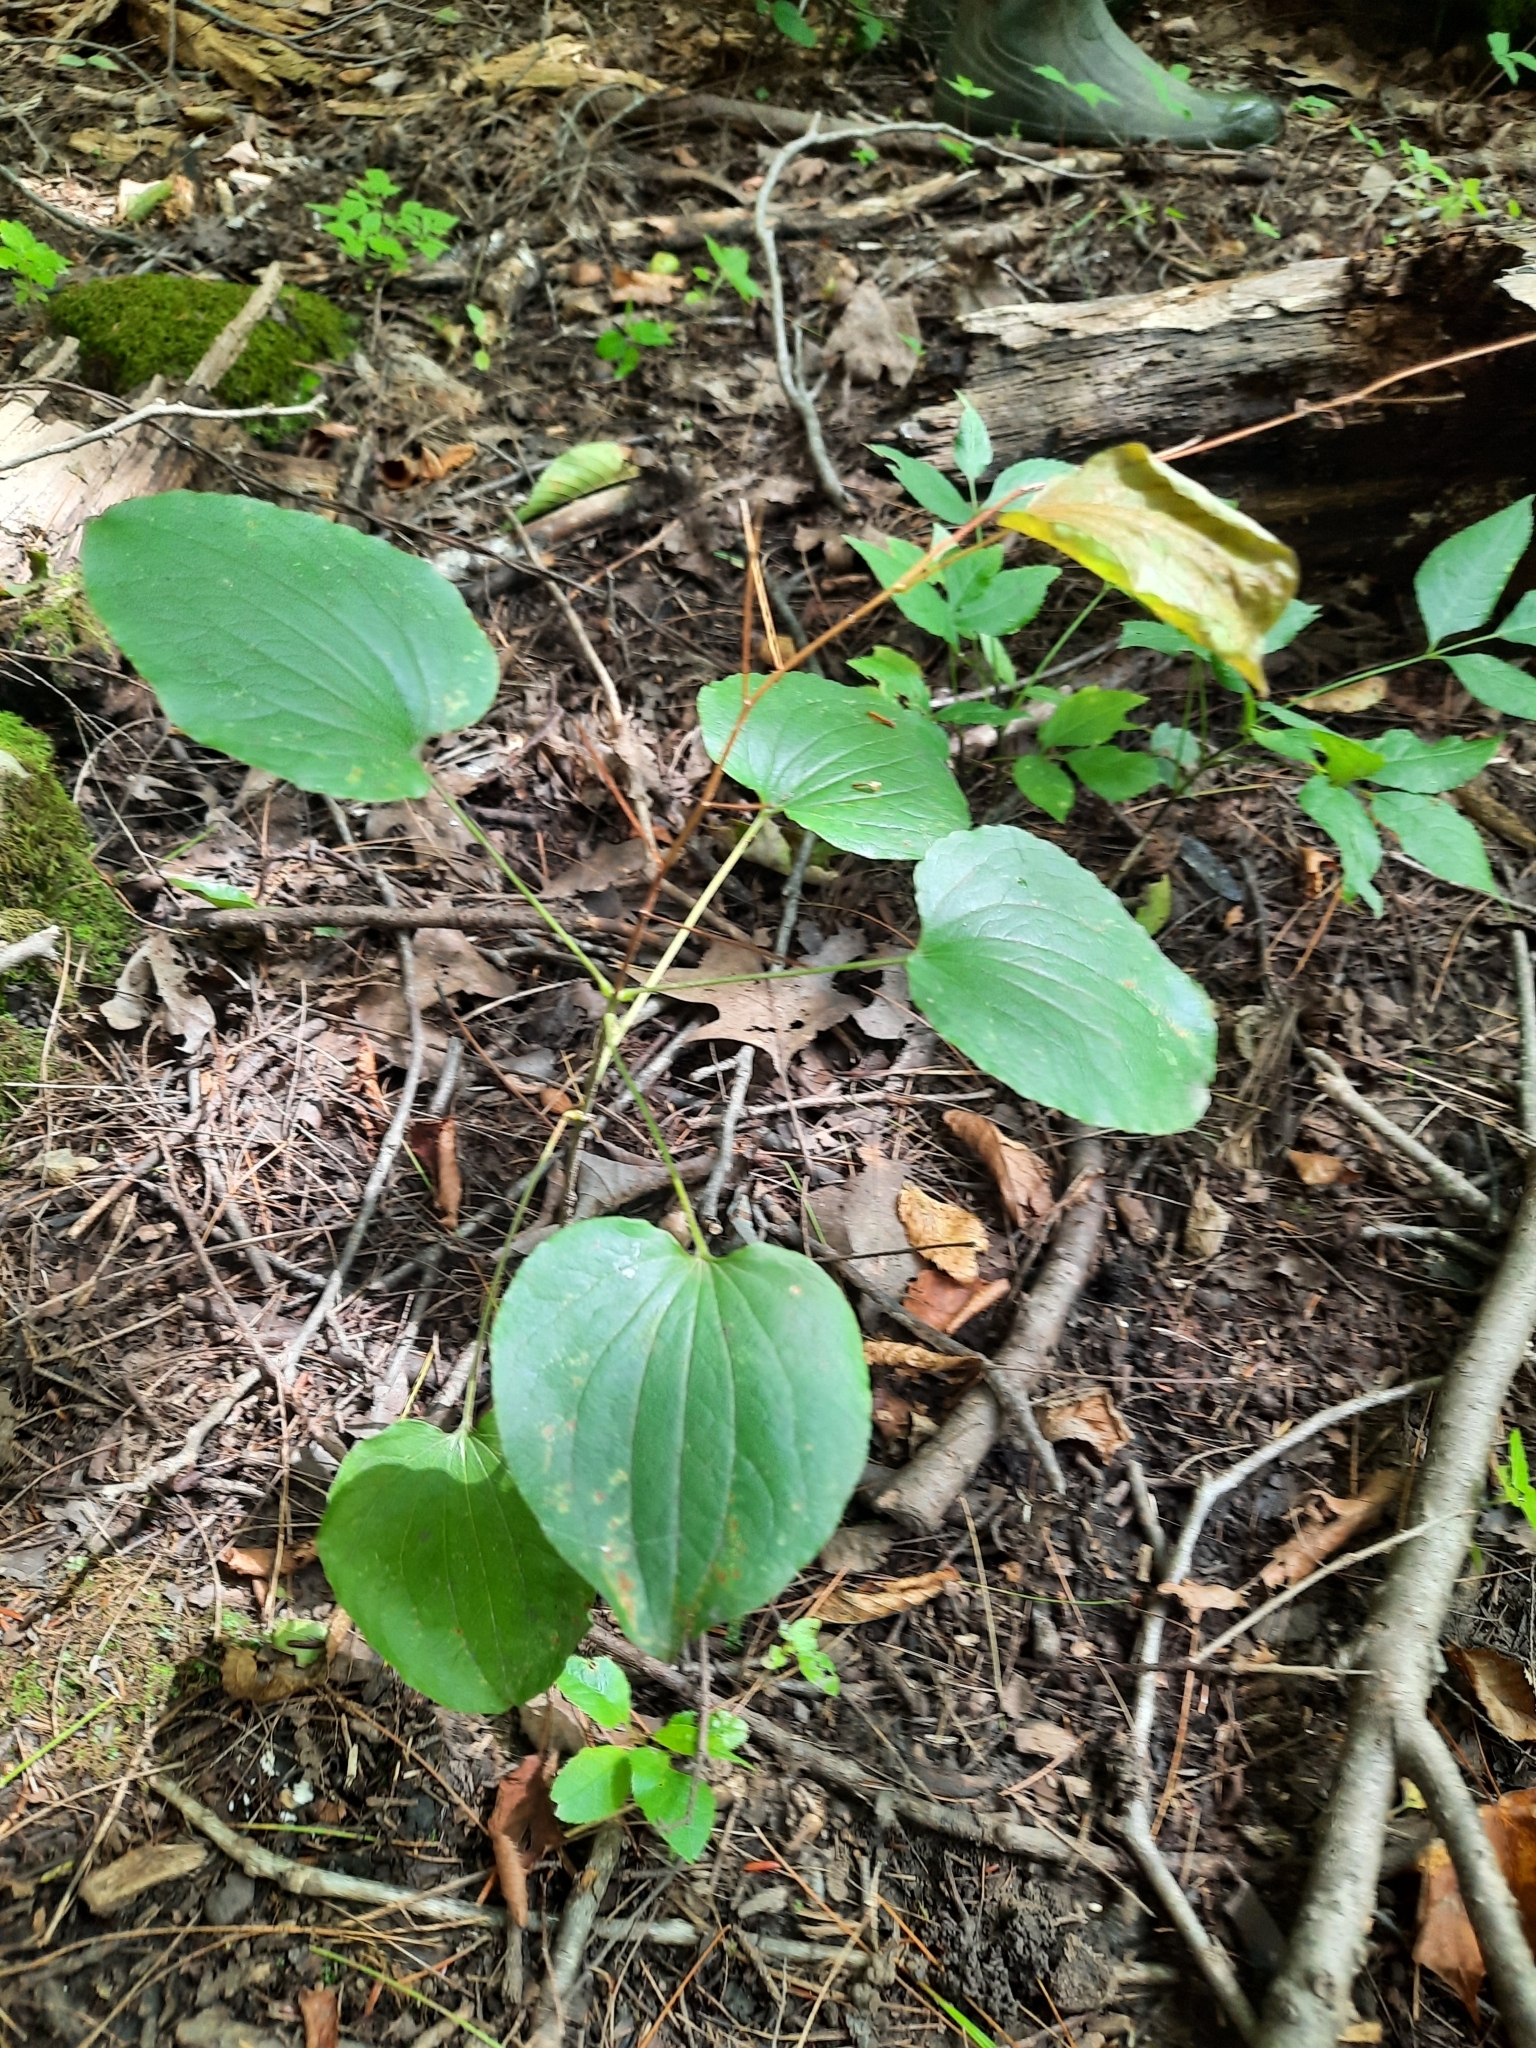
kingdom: Plantae
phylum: Tracheophyta
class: Liliopsida
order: Liliales
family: Smilacaceae
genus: Smilax
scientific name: Smilax herbacea
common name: Jacob's-ladder
